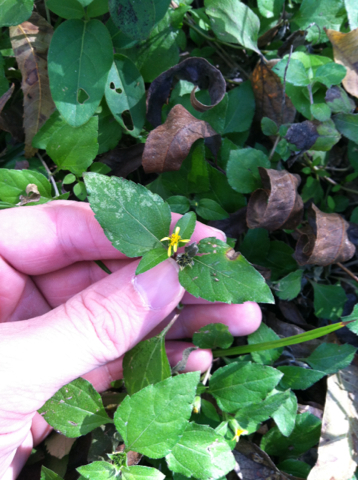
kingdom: Plantae
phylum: Tracheophyta
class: Magnoliopsida
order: Asterales
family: Asteraceae
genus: Calyptocarpus
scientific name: Calyptocarpus vialis
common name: Straggler daisy
